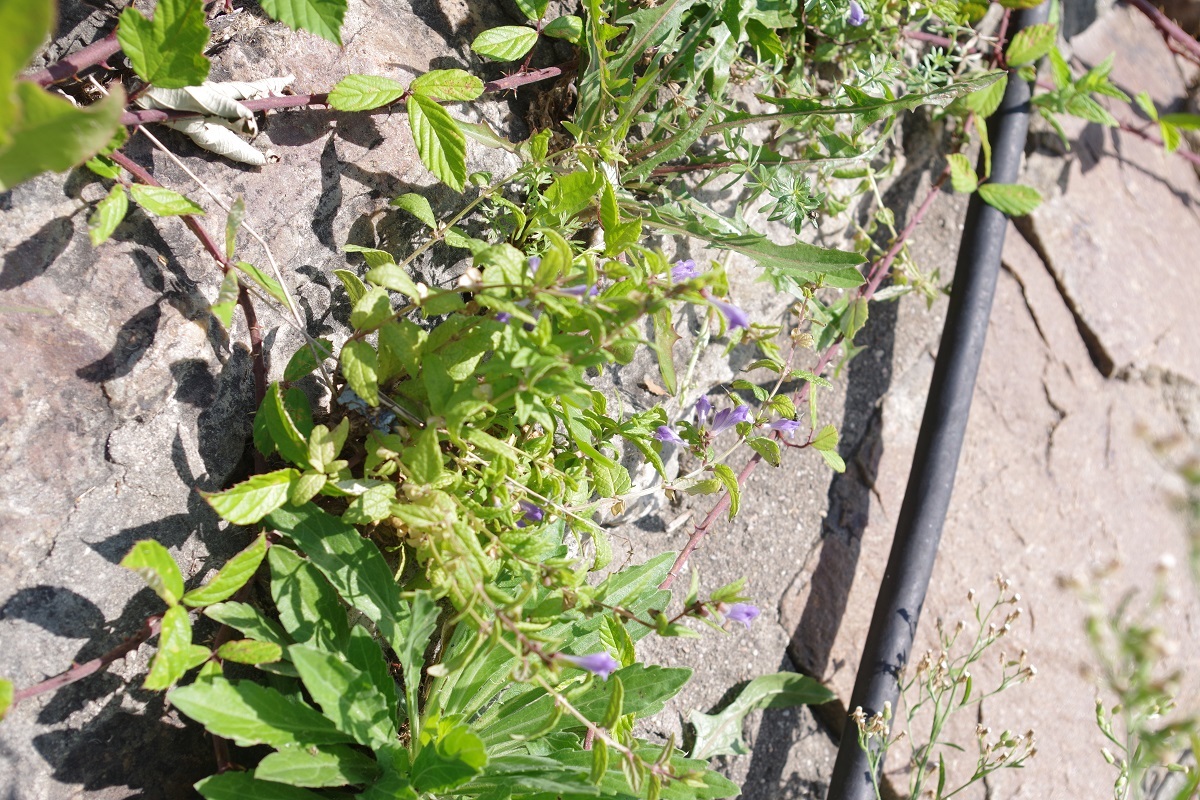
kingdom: Plantae
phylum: Tracheophyta
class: Magnoliopsida
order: Lamiales
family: Lamiaceae
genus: Scutellaria
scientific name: Scutellaria galericulata
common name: Skullcap
